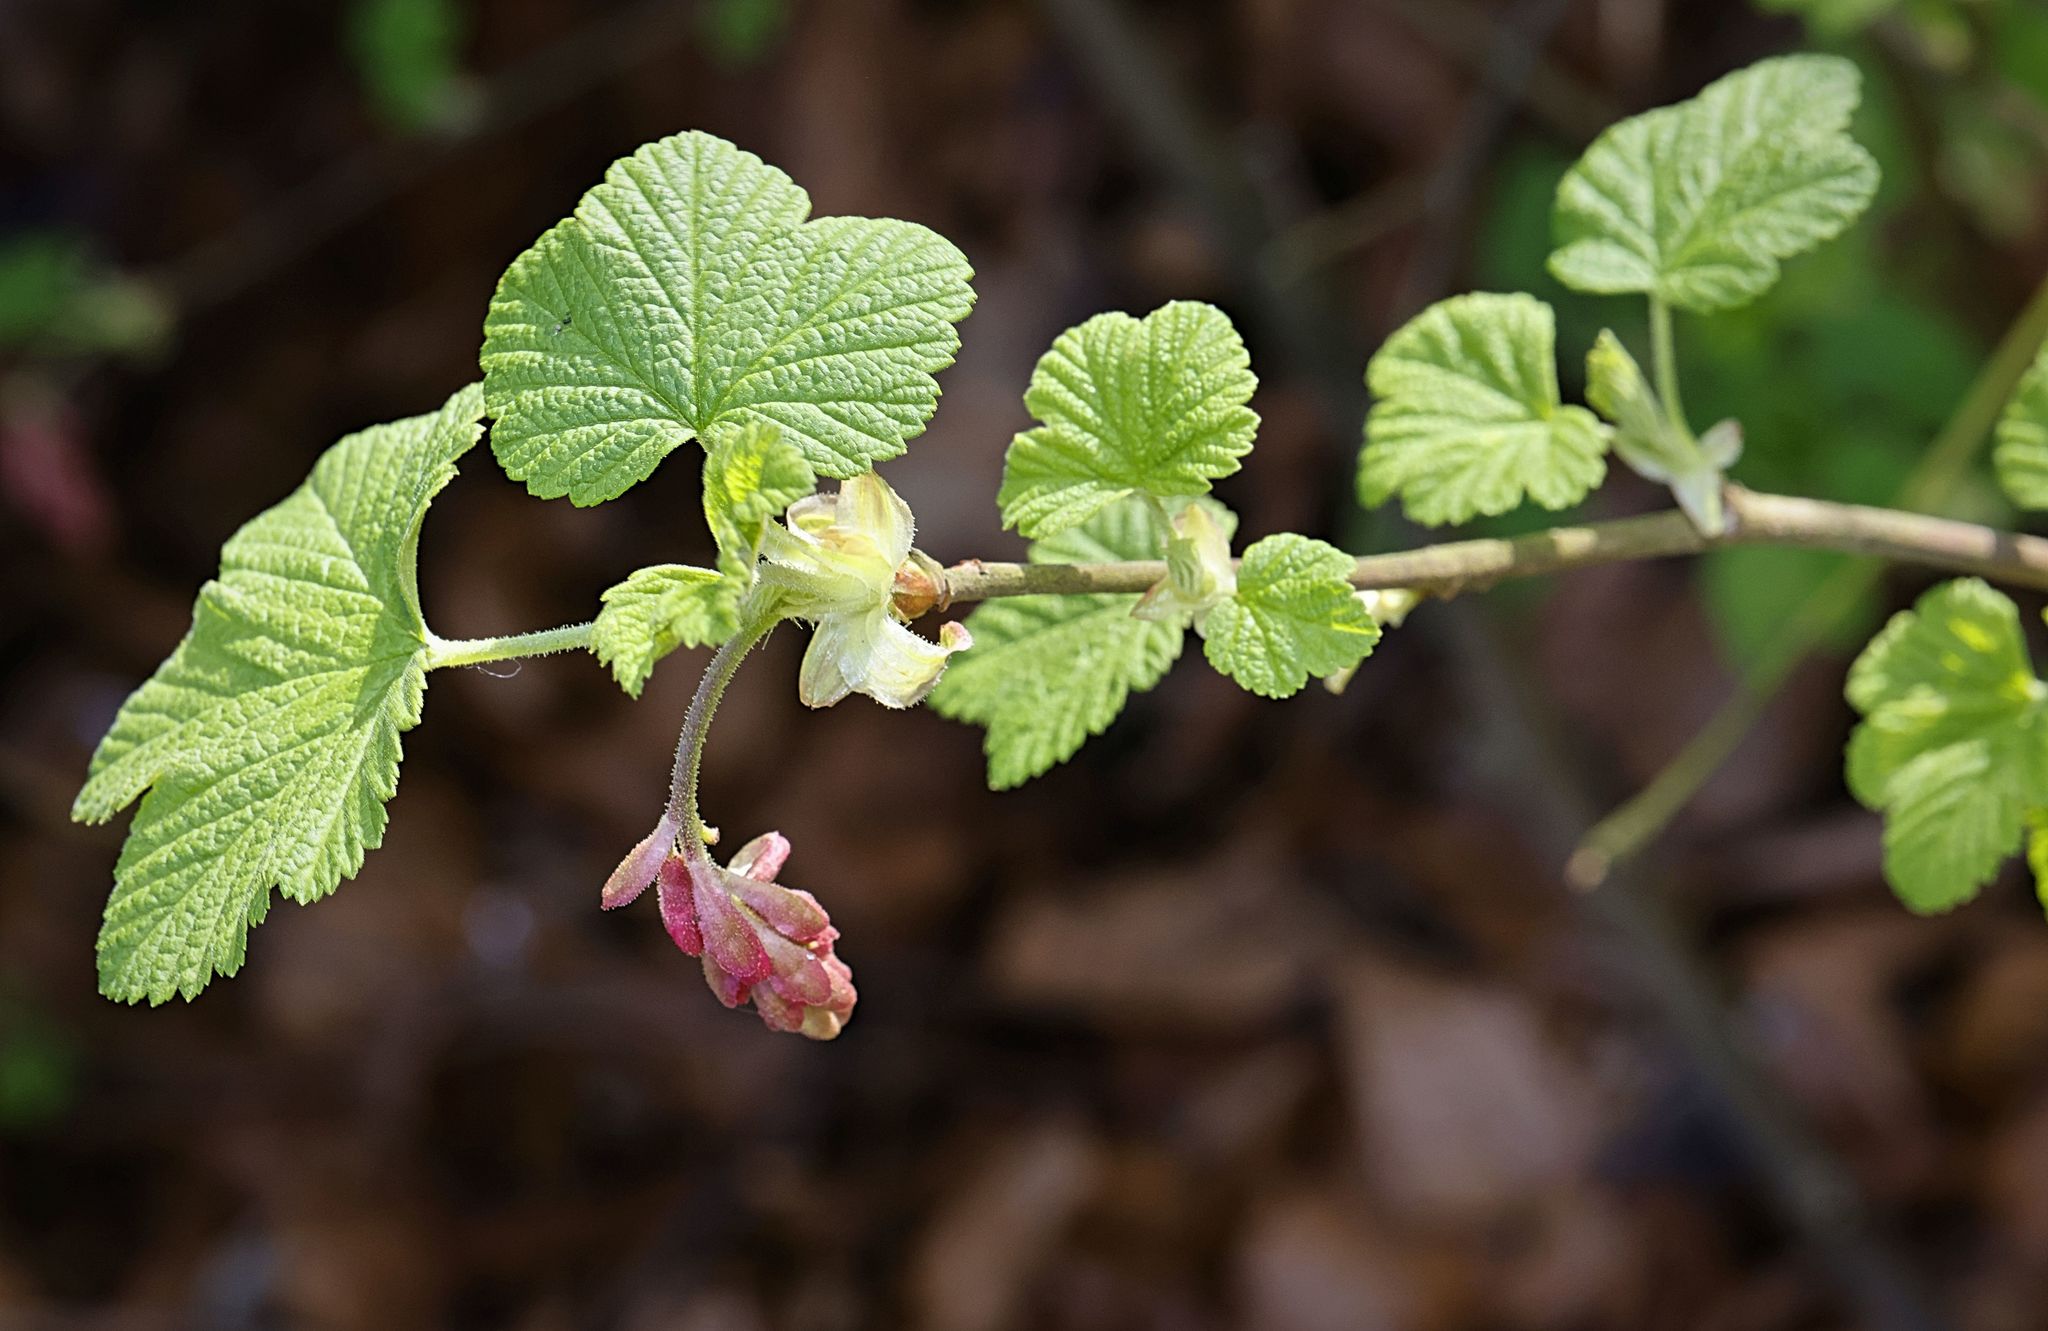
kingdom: Plantae
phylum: Tracheophyta
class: Magnoliopsida
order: Saxifragales
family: Grossulariaceae
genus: Ribes
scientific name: Ribes sanguineum
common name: Flowering currant
